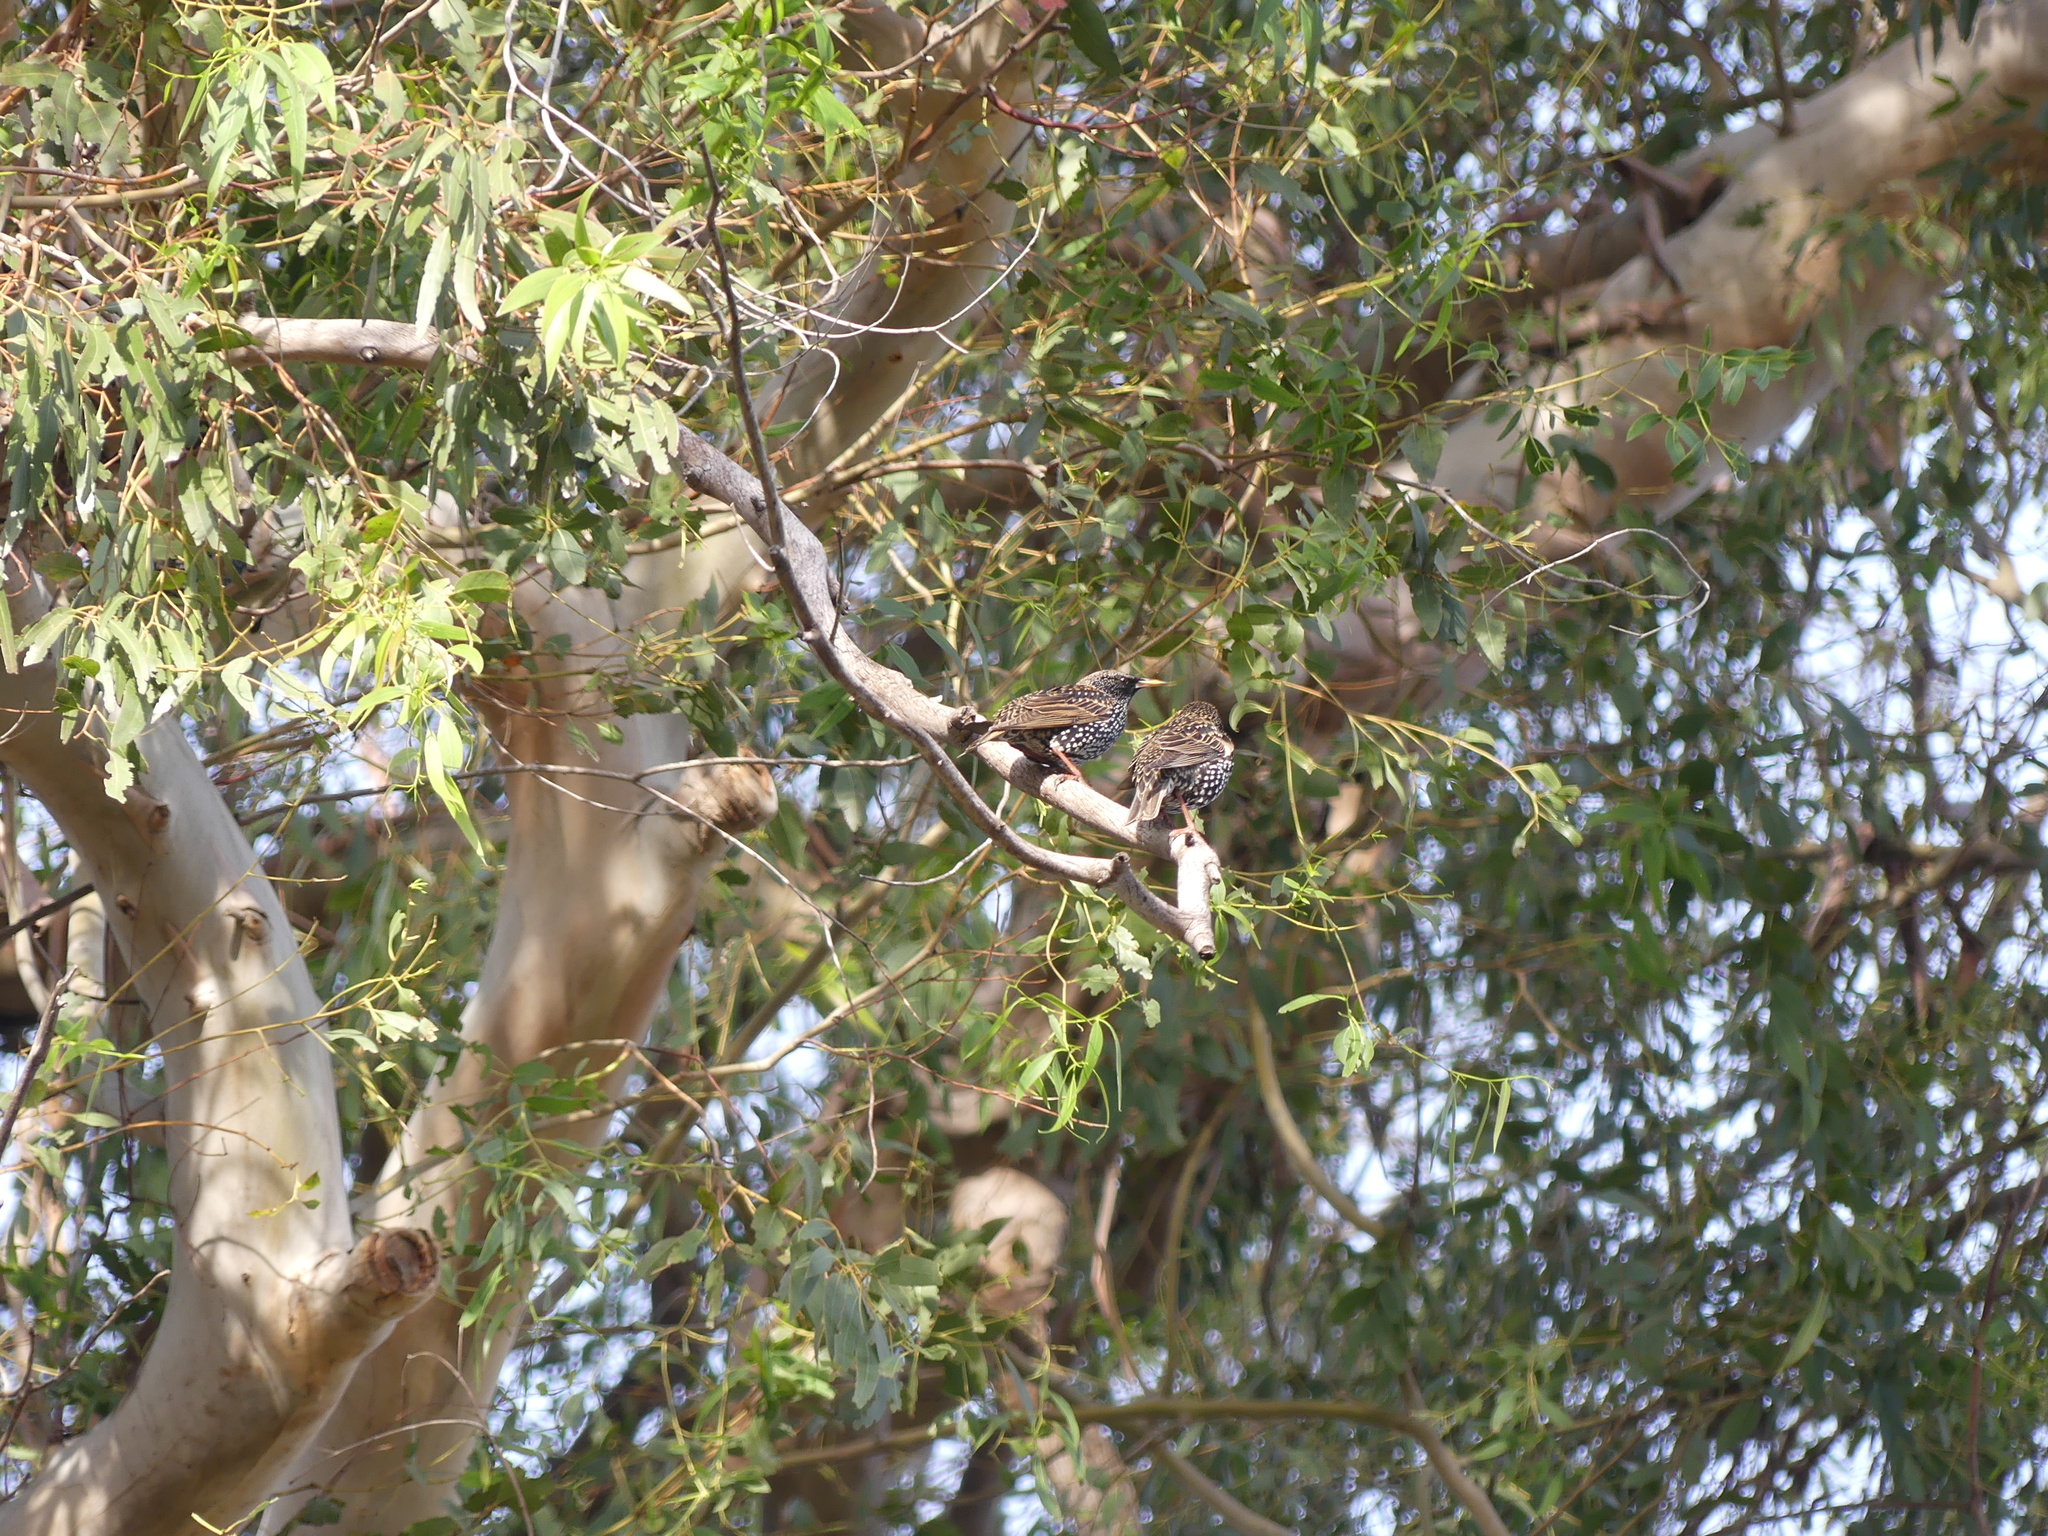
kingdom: Animalia
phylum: Chordata
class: Aves
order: Passeriformes
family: Sturnidae
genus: Sturnus
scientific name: Sturnus vulgaris
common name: Common starling
